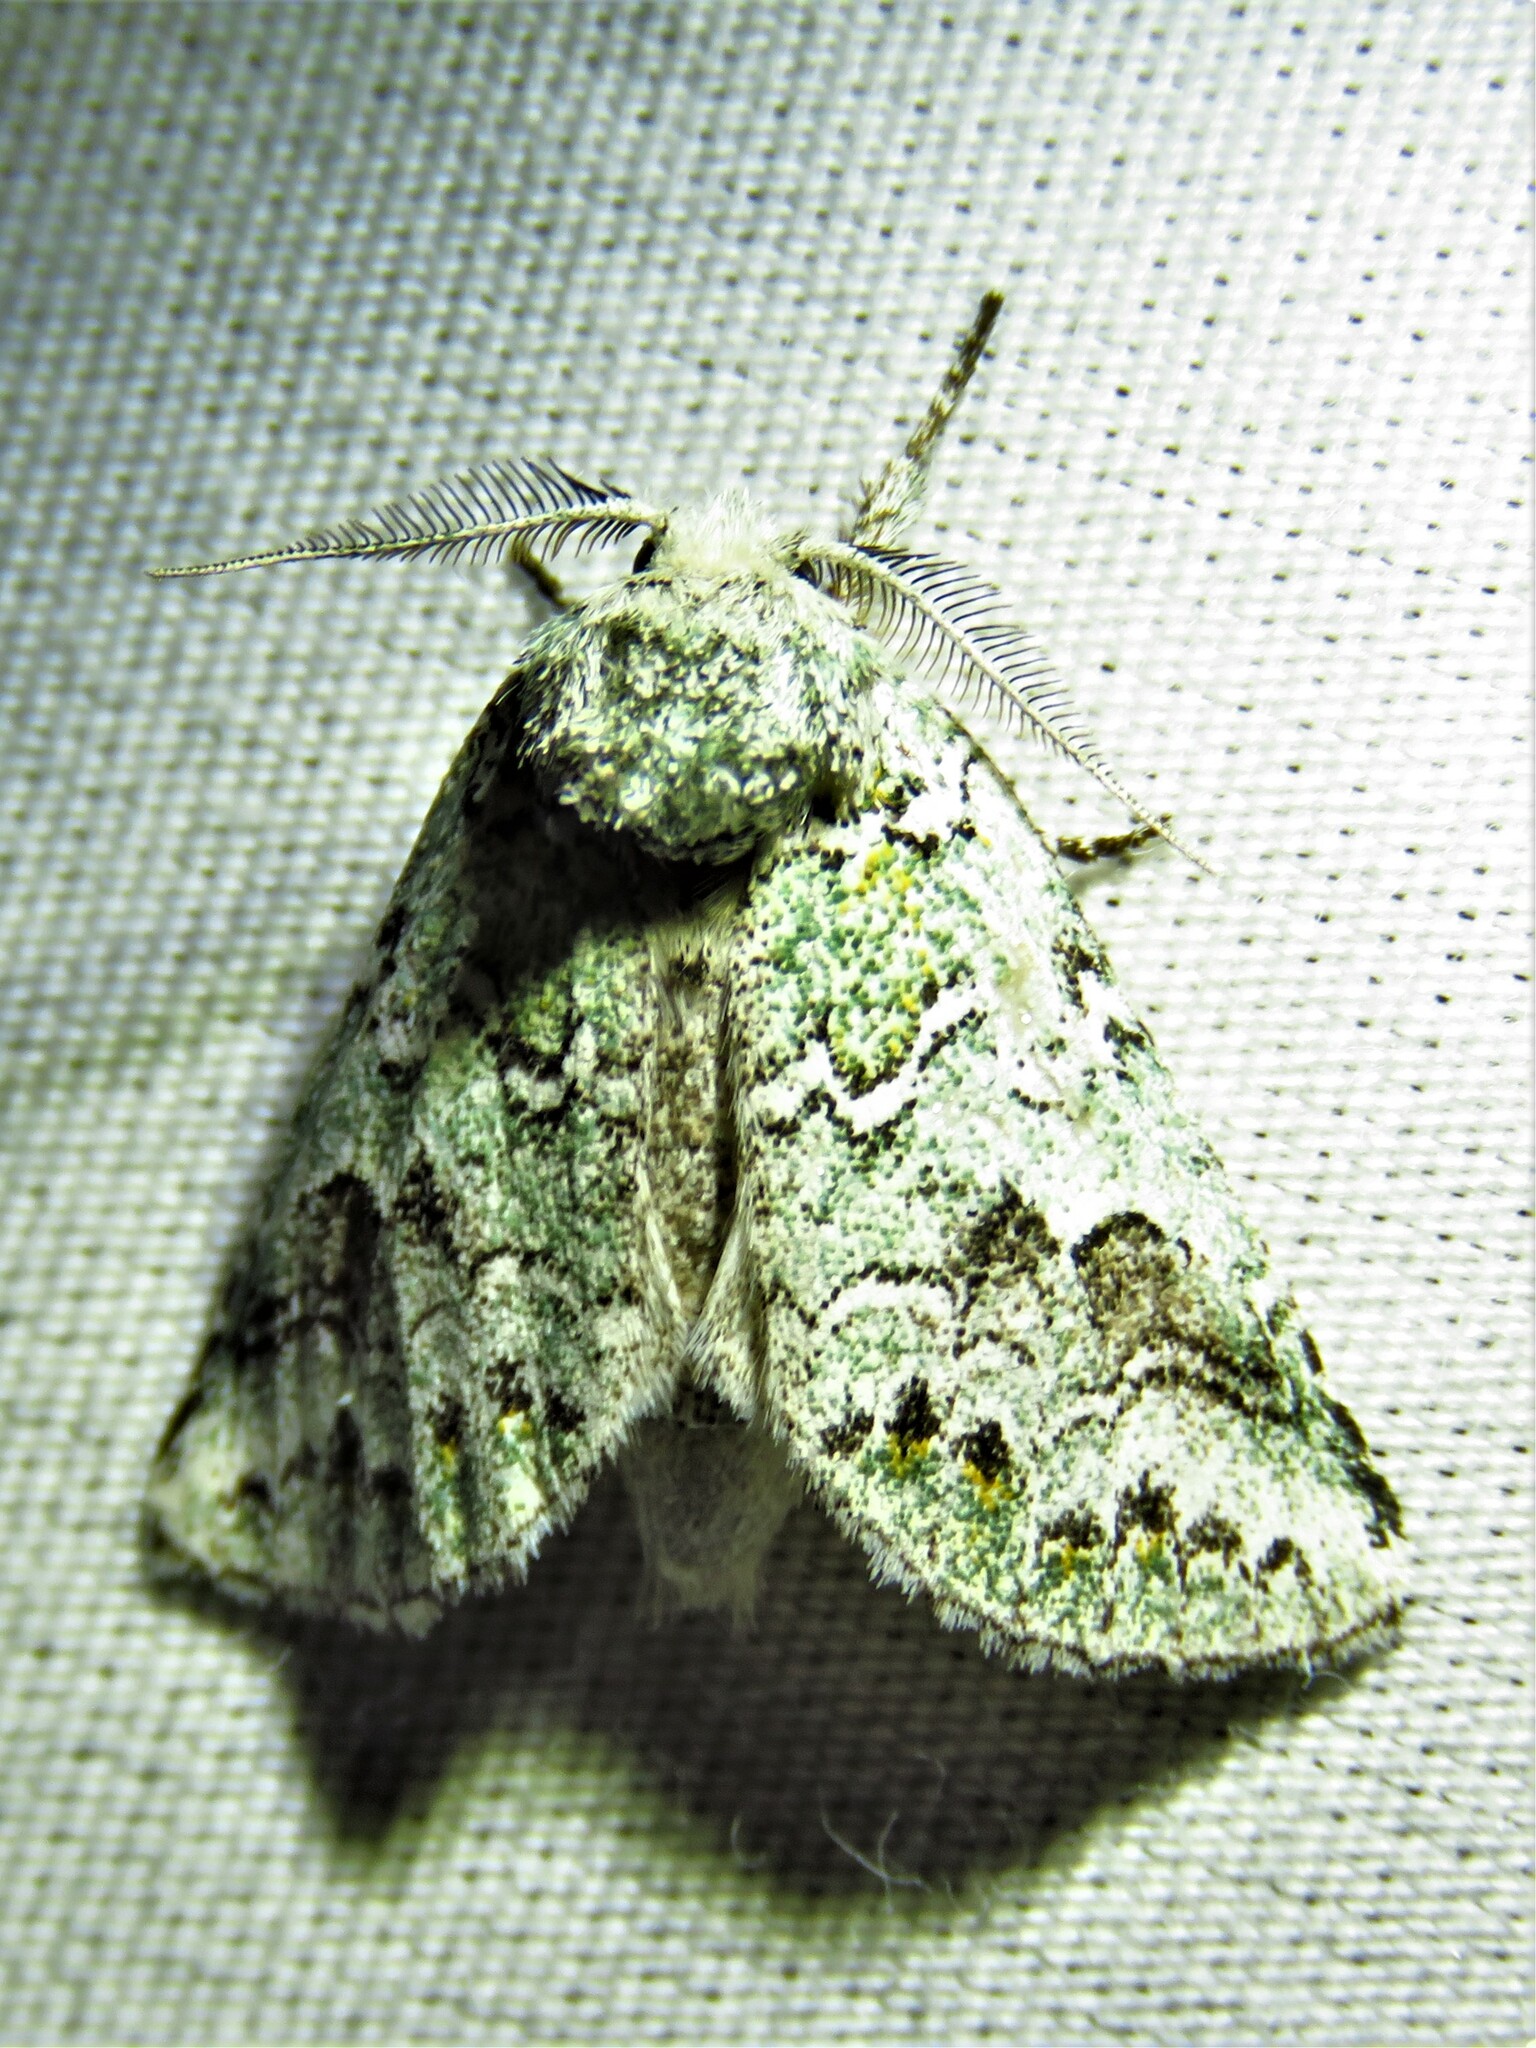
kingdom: Animalia
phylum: Arthropoda
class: Insecta
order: Lepidoptera
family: Notodontidae
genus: Litodonta
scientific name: Litodonta hydromeli
